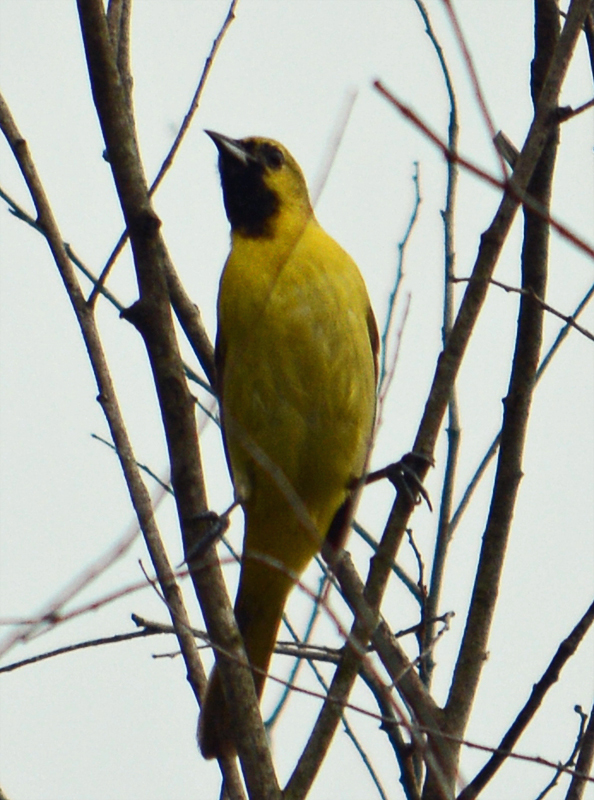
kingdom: Animalia
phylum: Chordata
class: Aves
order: Passeriformes
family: Icteridae
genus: Icterus
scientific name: Icterus spurius
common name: Orchard oriole
